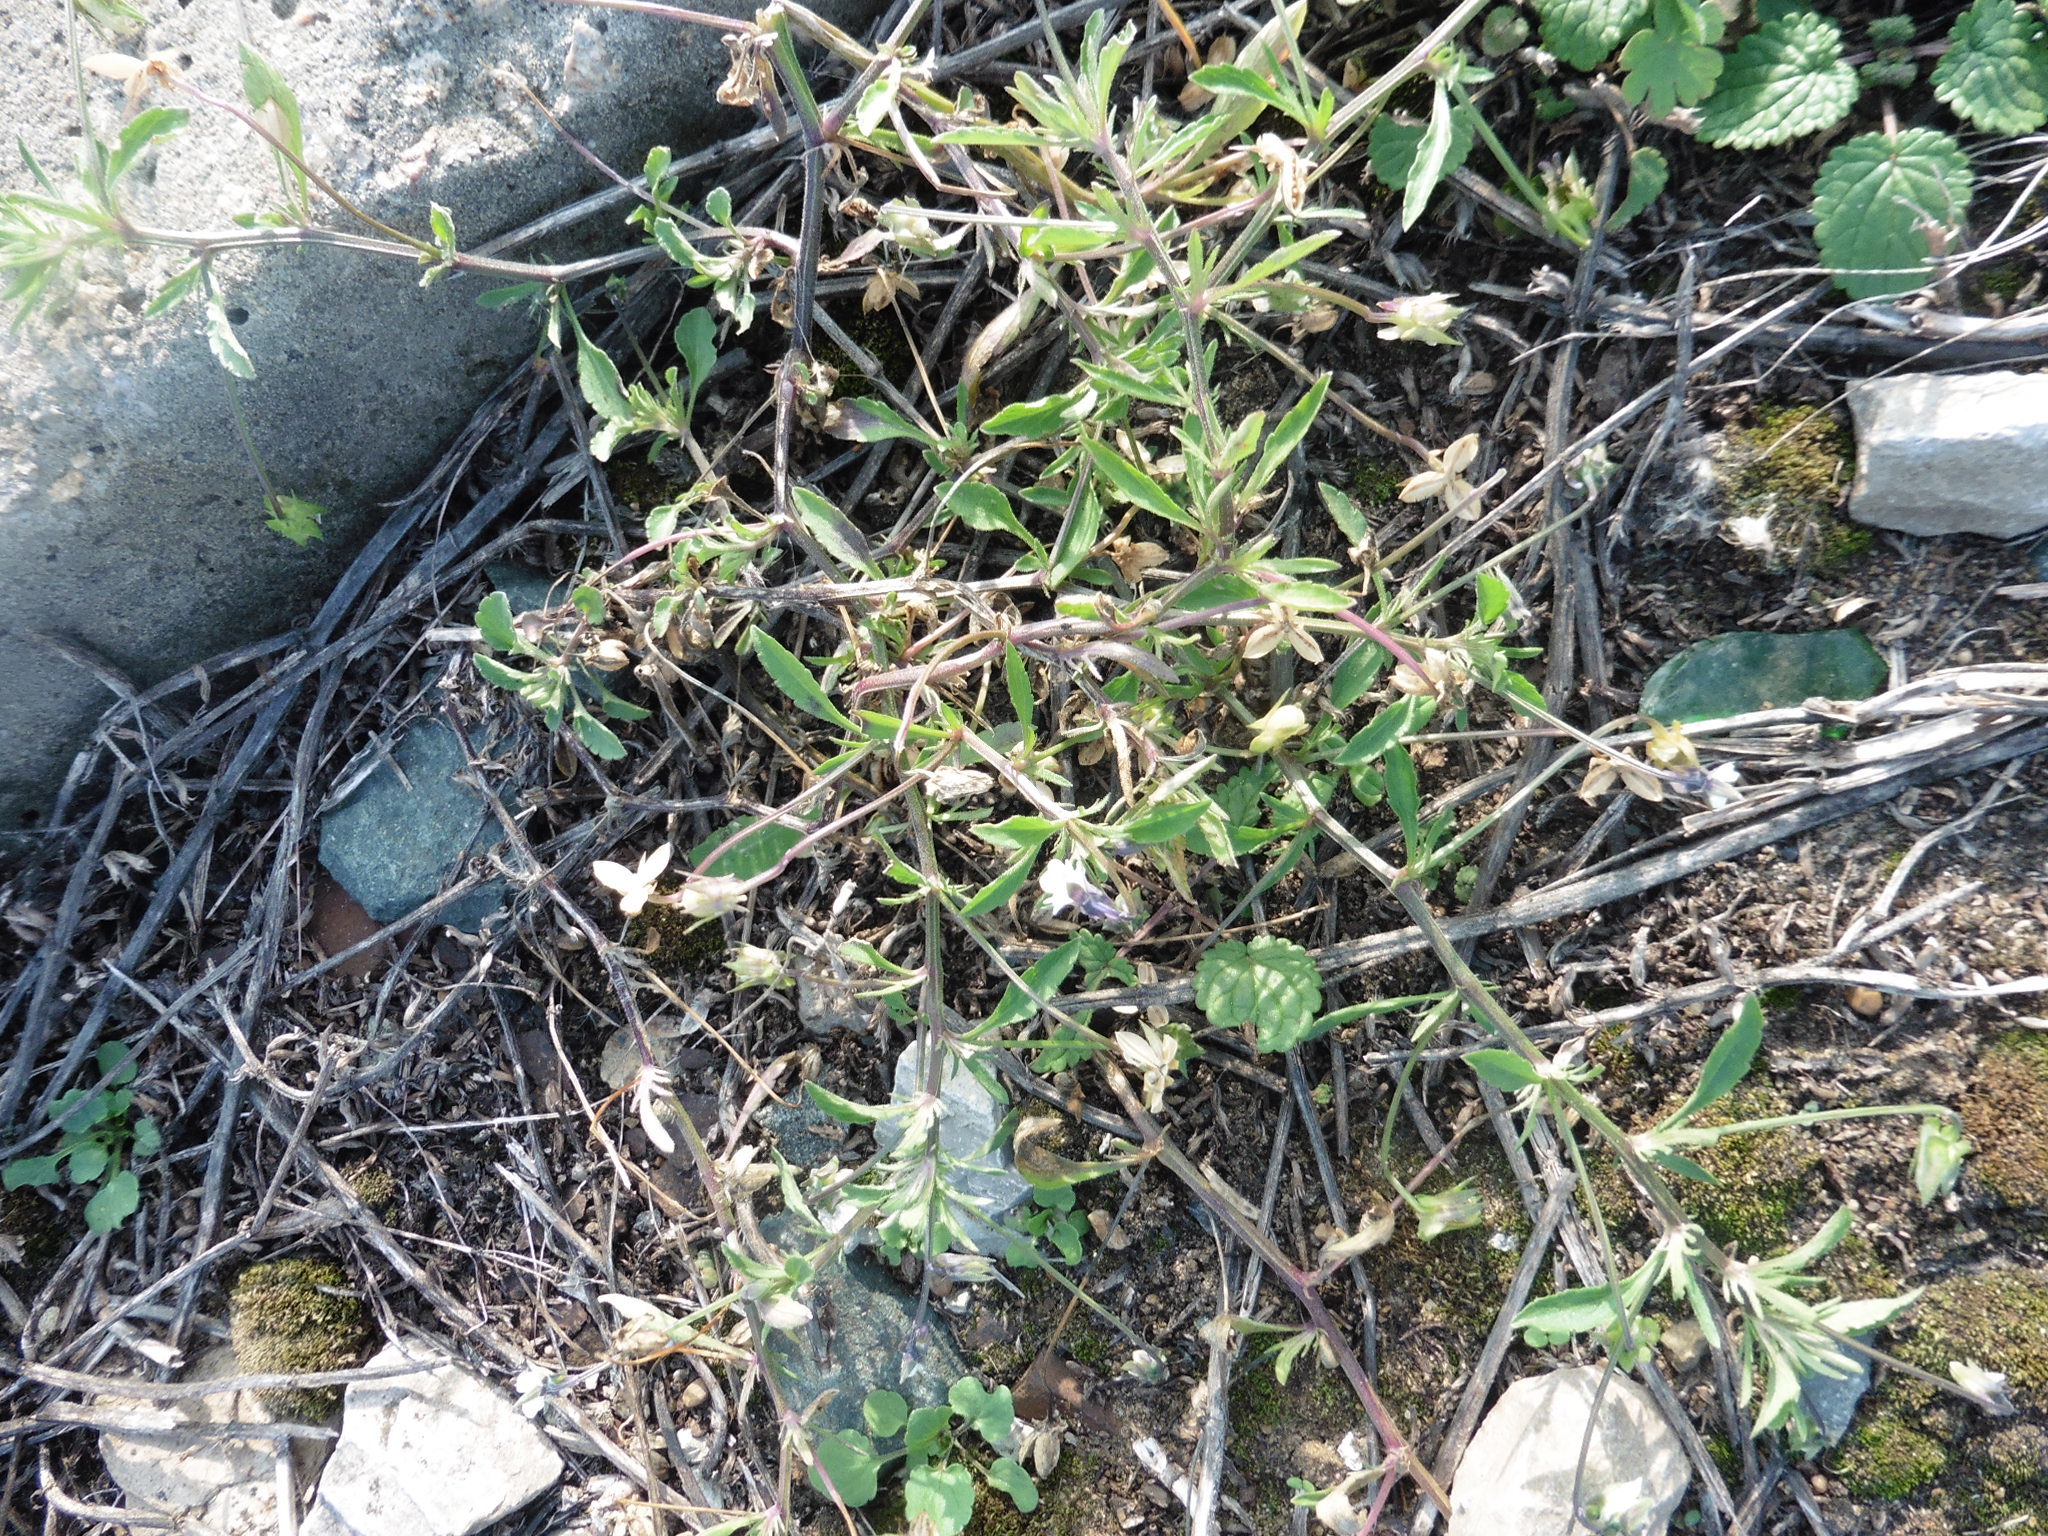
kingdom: Plantae
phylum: Tracheophyta
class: Magnoliopsida
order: Malpighiales
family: Violaceae
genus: Viola
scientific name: Viola arvensis
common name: Field pansy
